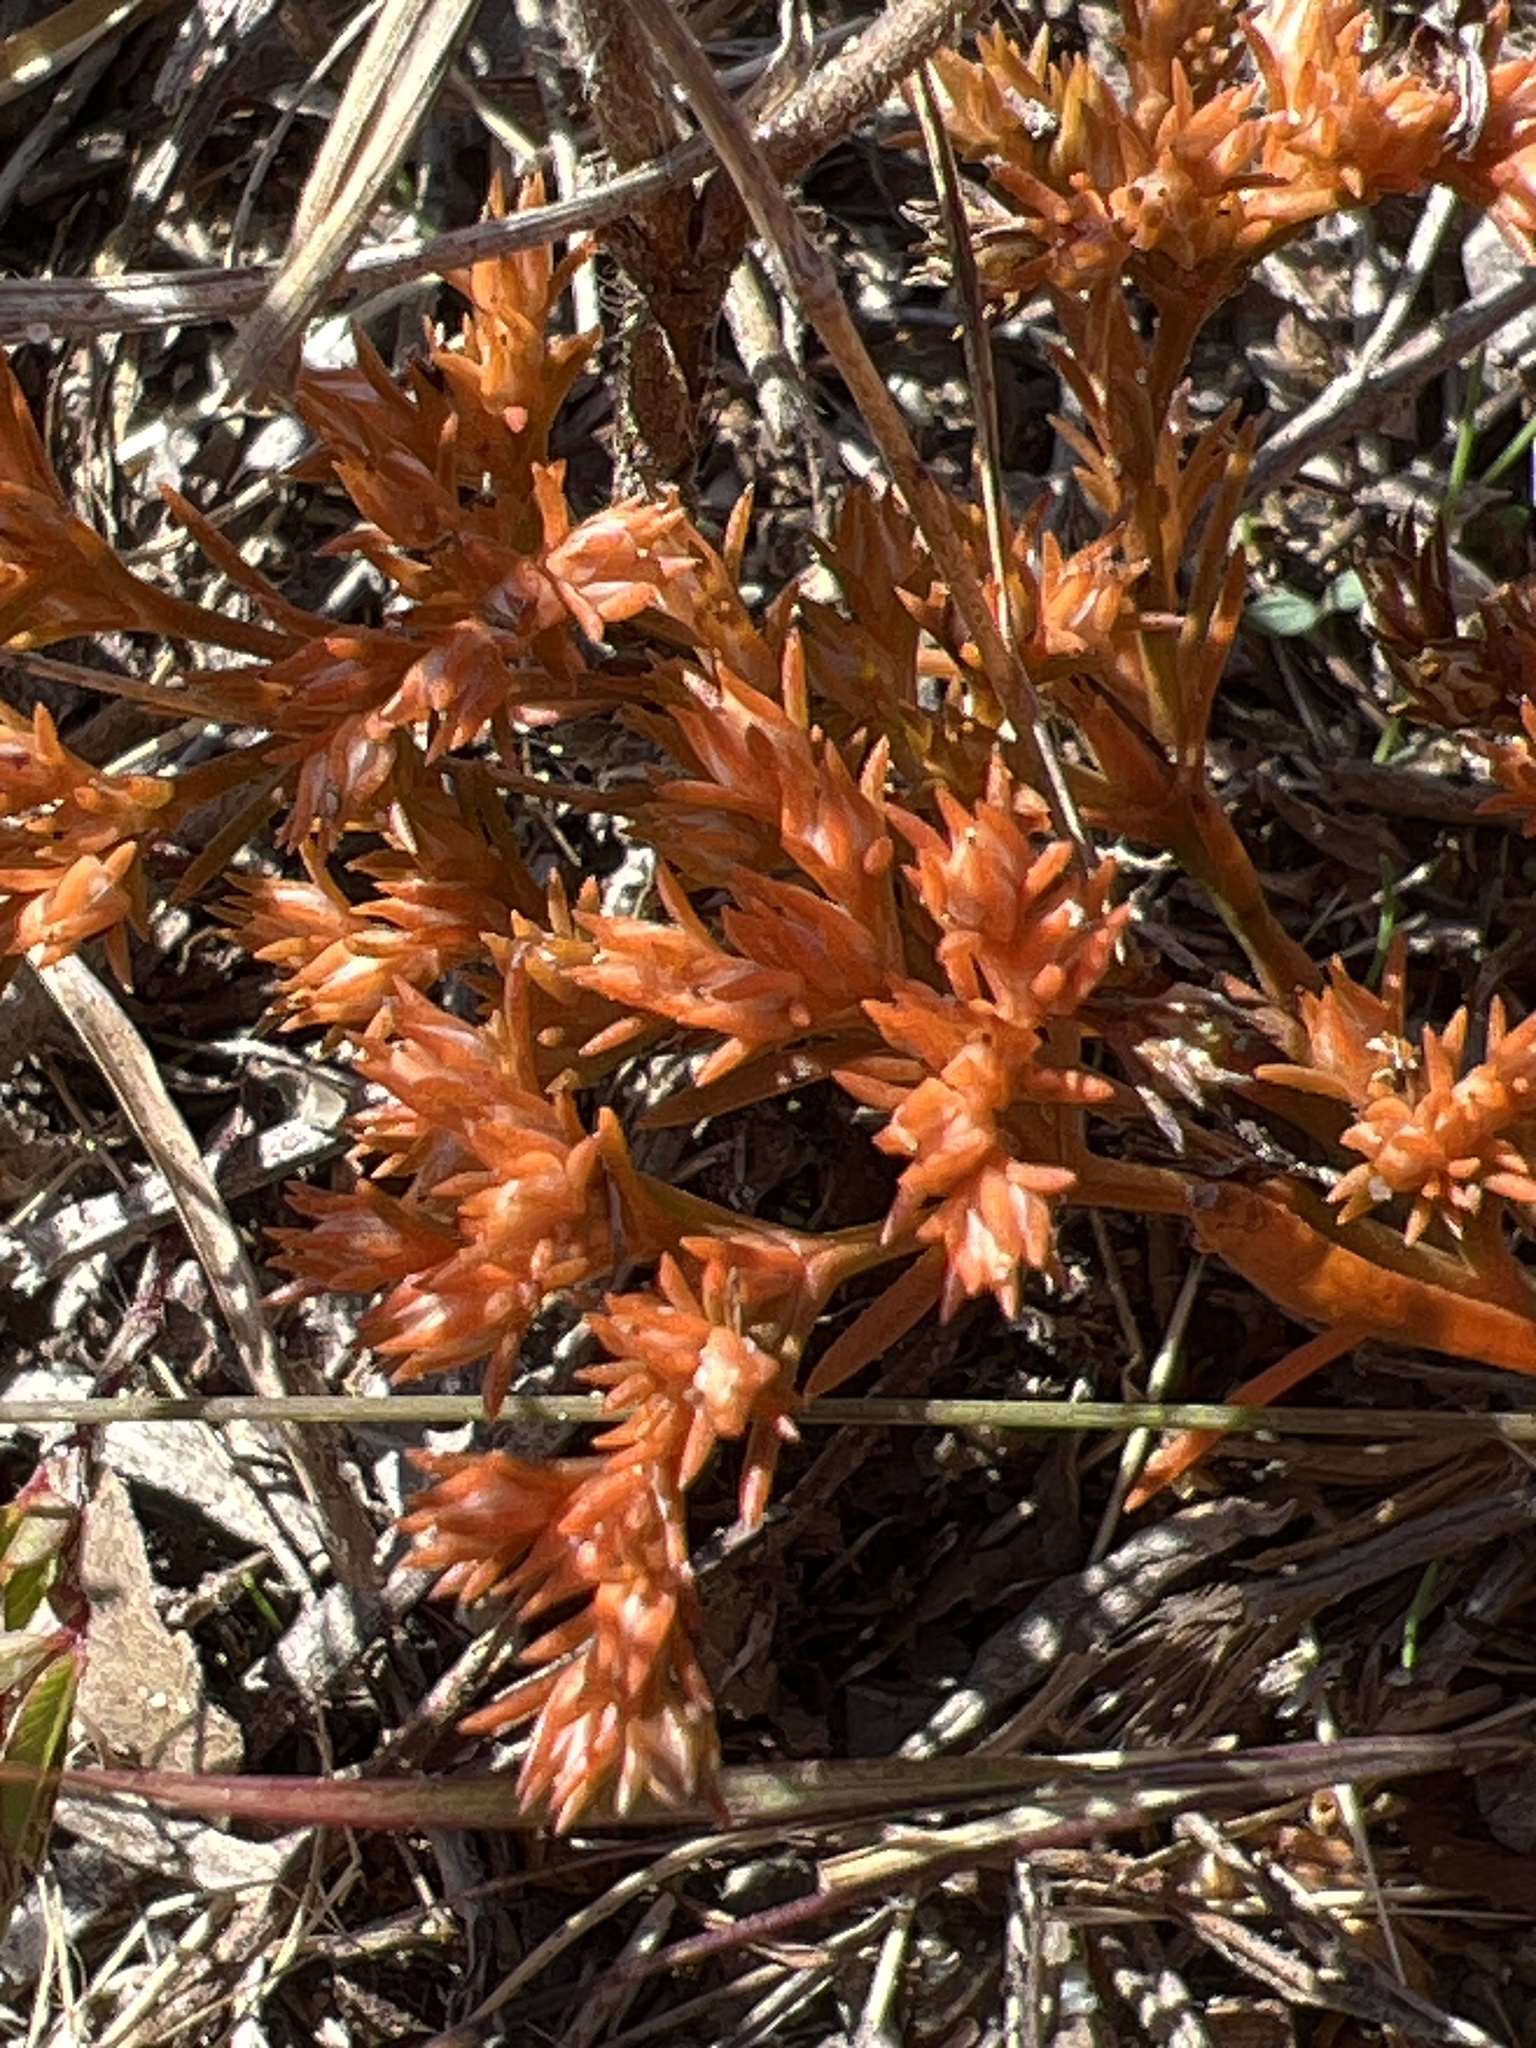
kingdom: Plantae
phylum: Tracheophyta
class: Magnoliopsida
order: Lamiales
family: Tetrachondraceae
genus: Polypremum
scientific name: Polypremum procumbens
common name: Juniper-leaf
